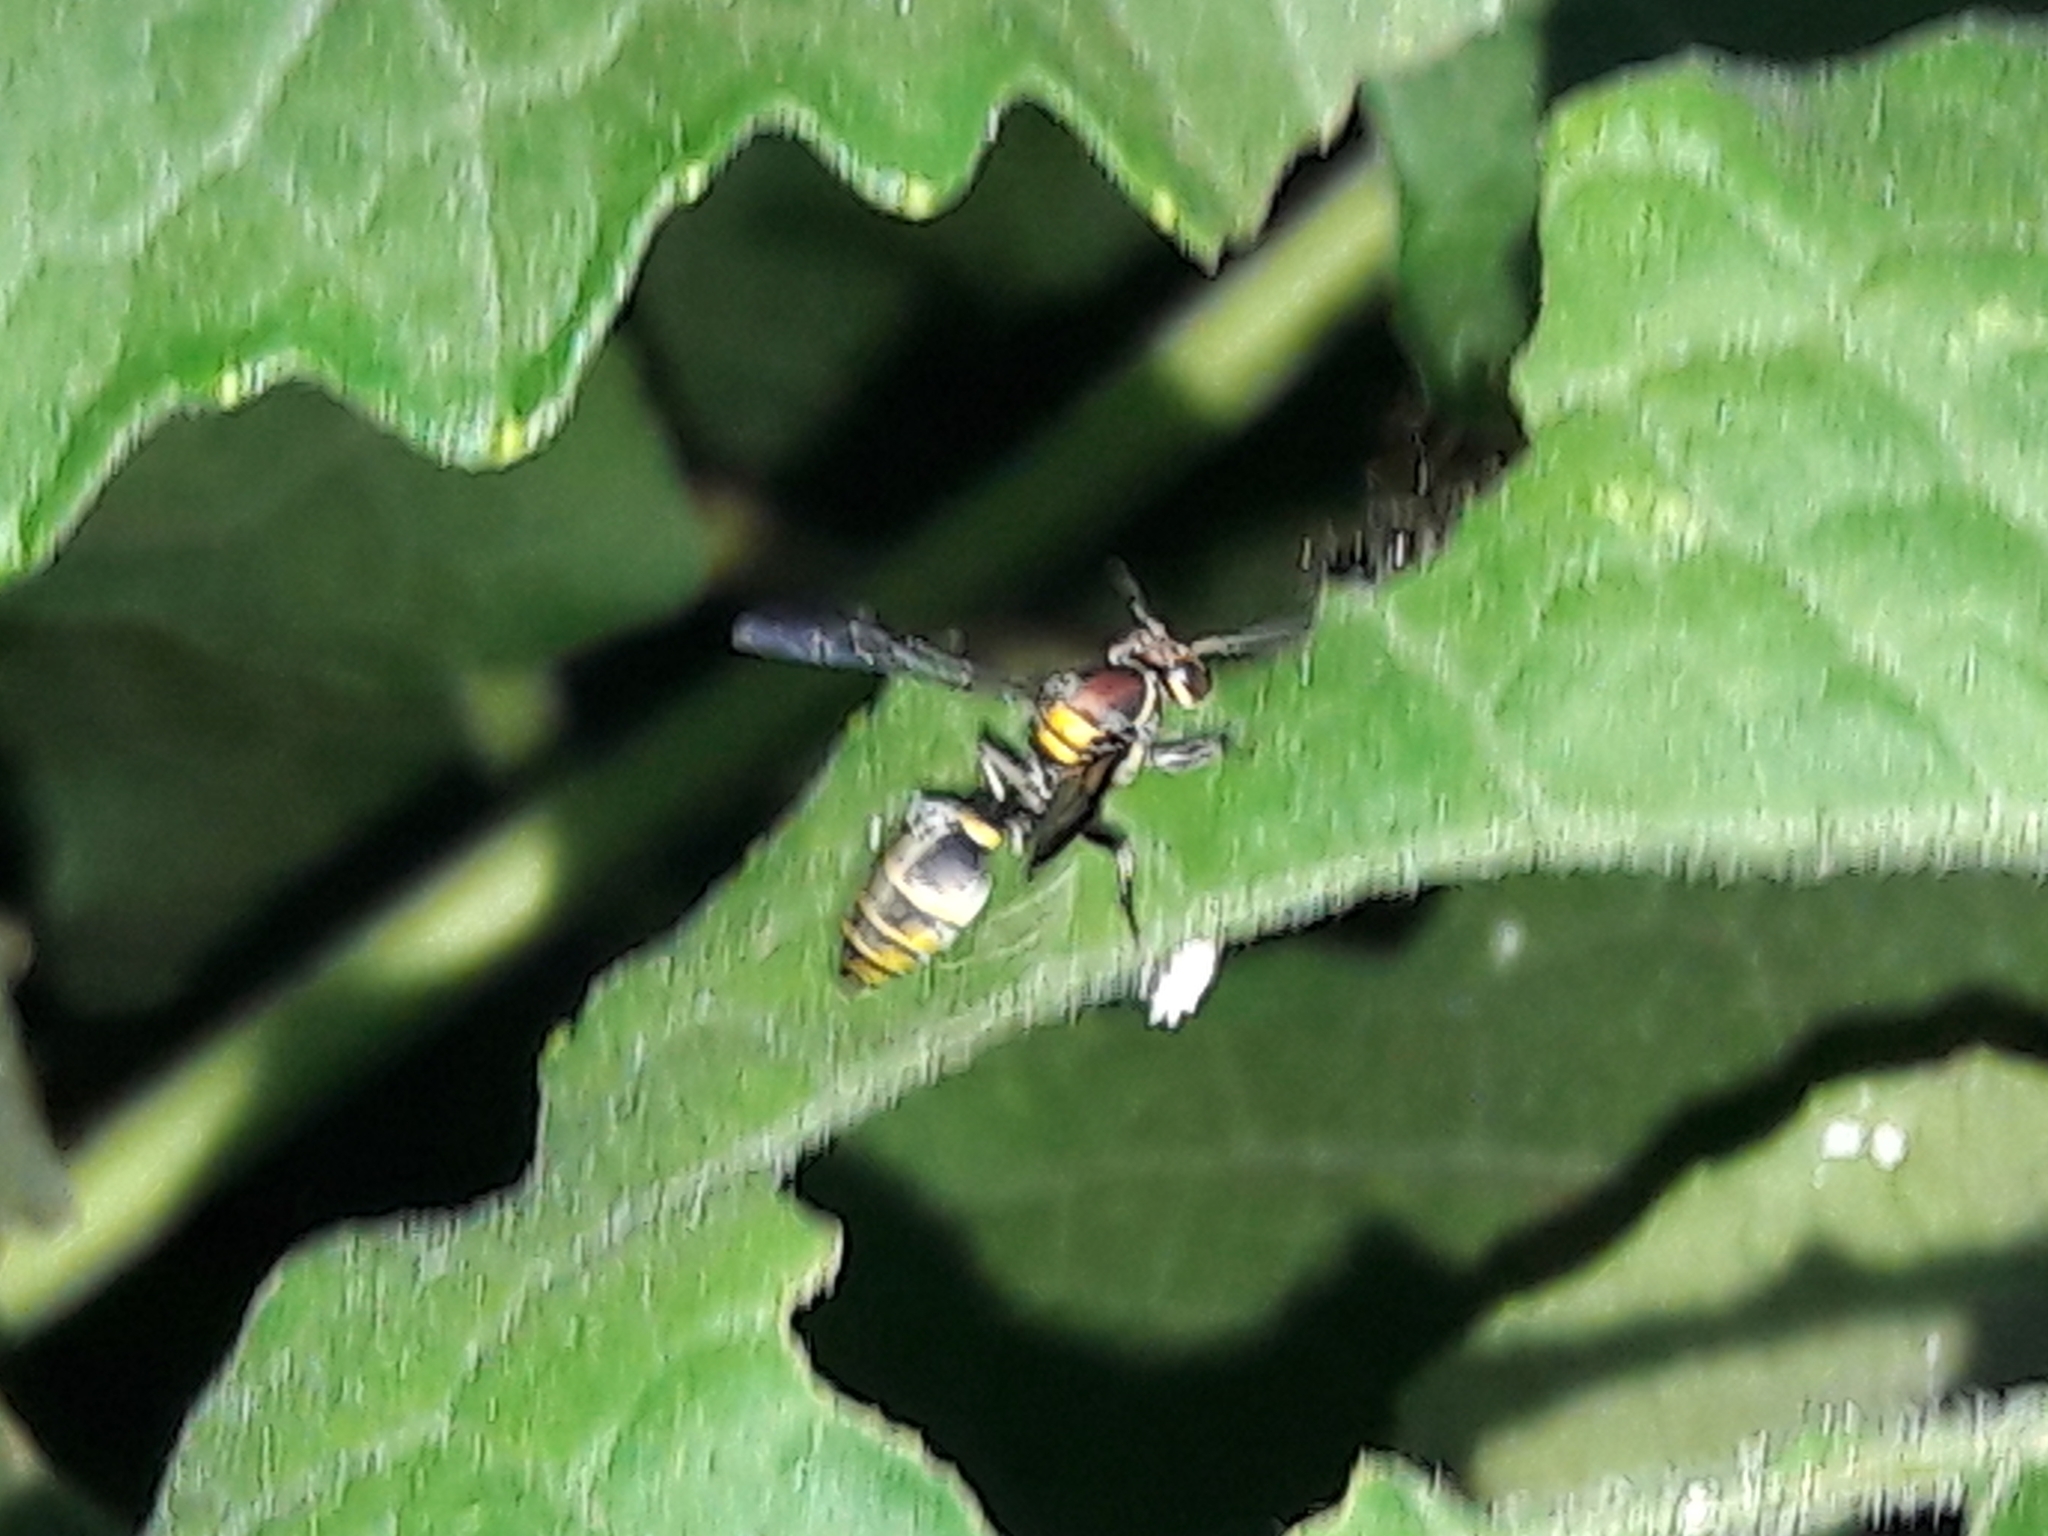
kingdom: Animalia
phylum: Arthropoda
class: Insecta
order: Hymenoptera
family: Eumenidae
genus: Polybia
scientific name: Polybia ruficeps
